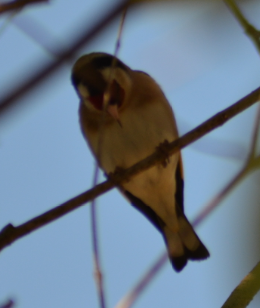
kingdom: Animalia
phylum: Chordata
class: Aves
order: Passeriformes
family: Fringillidae
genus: Carduelis
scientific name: Carduelis carduelis
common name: European goldfinch
